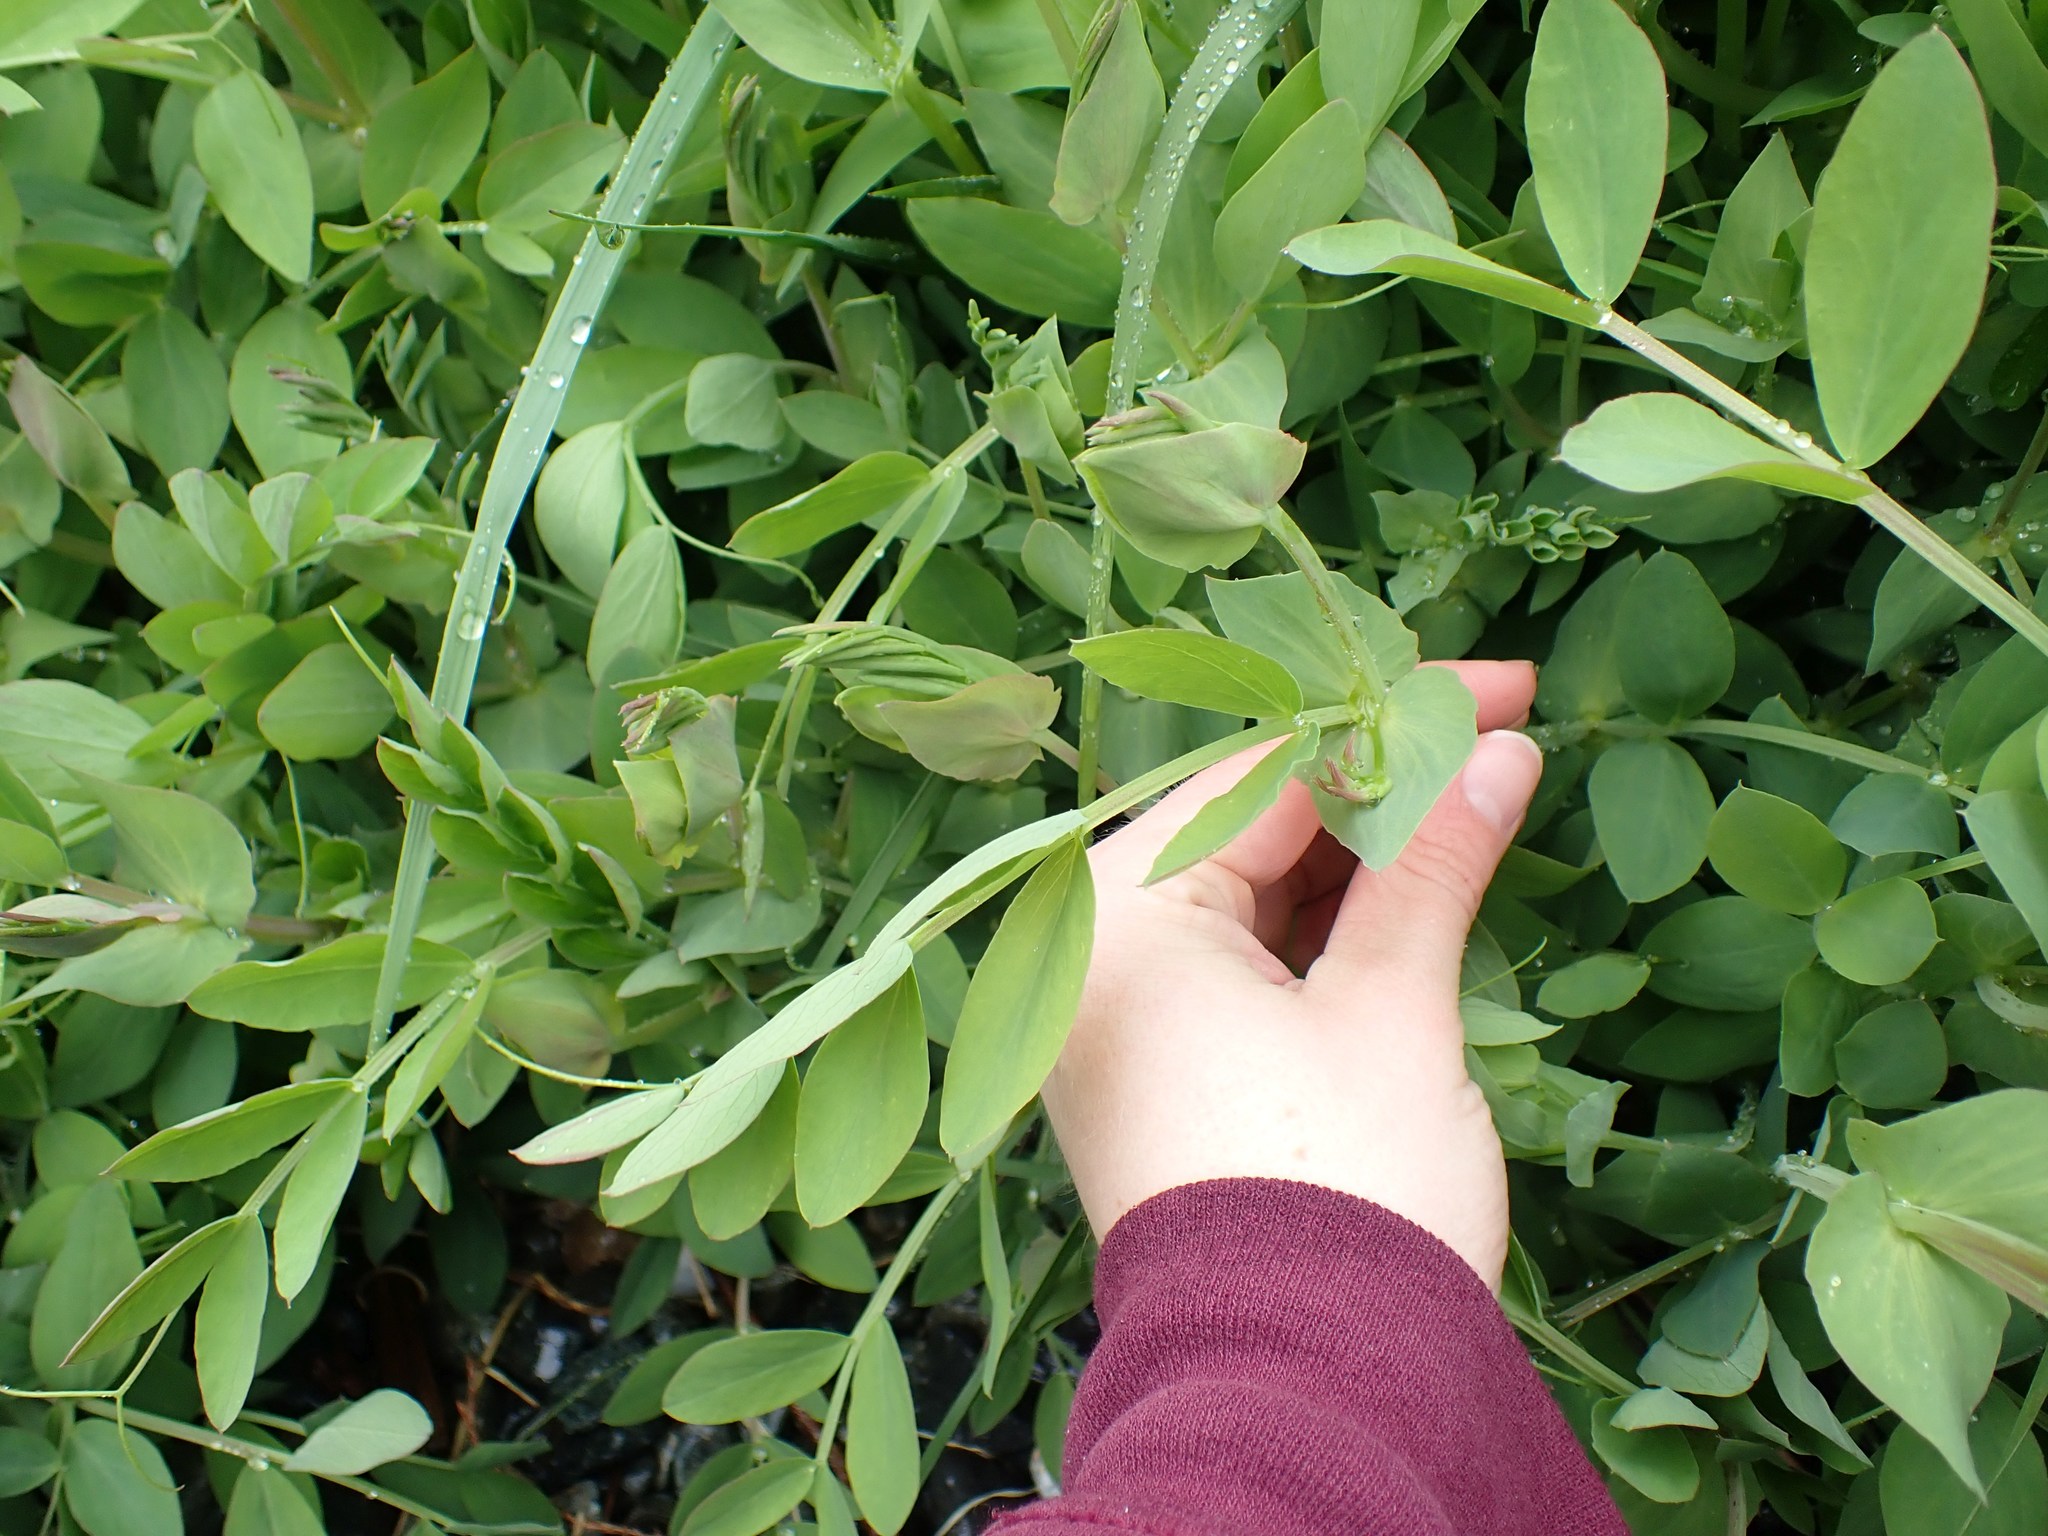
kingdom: Plantae
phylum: Tracheophyta
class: Magnoliopsida
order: Fabales
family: Fabaceae
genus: Lathyrus
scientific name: Lathyrus japonicus
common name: Sea pea
